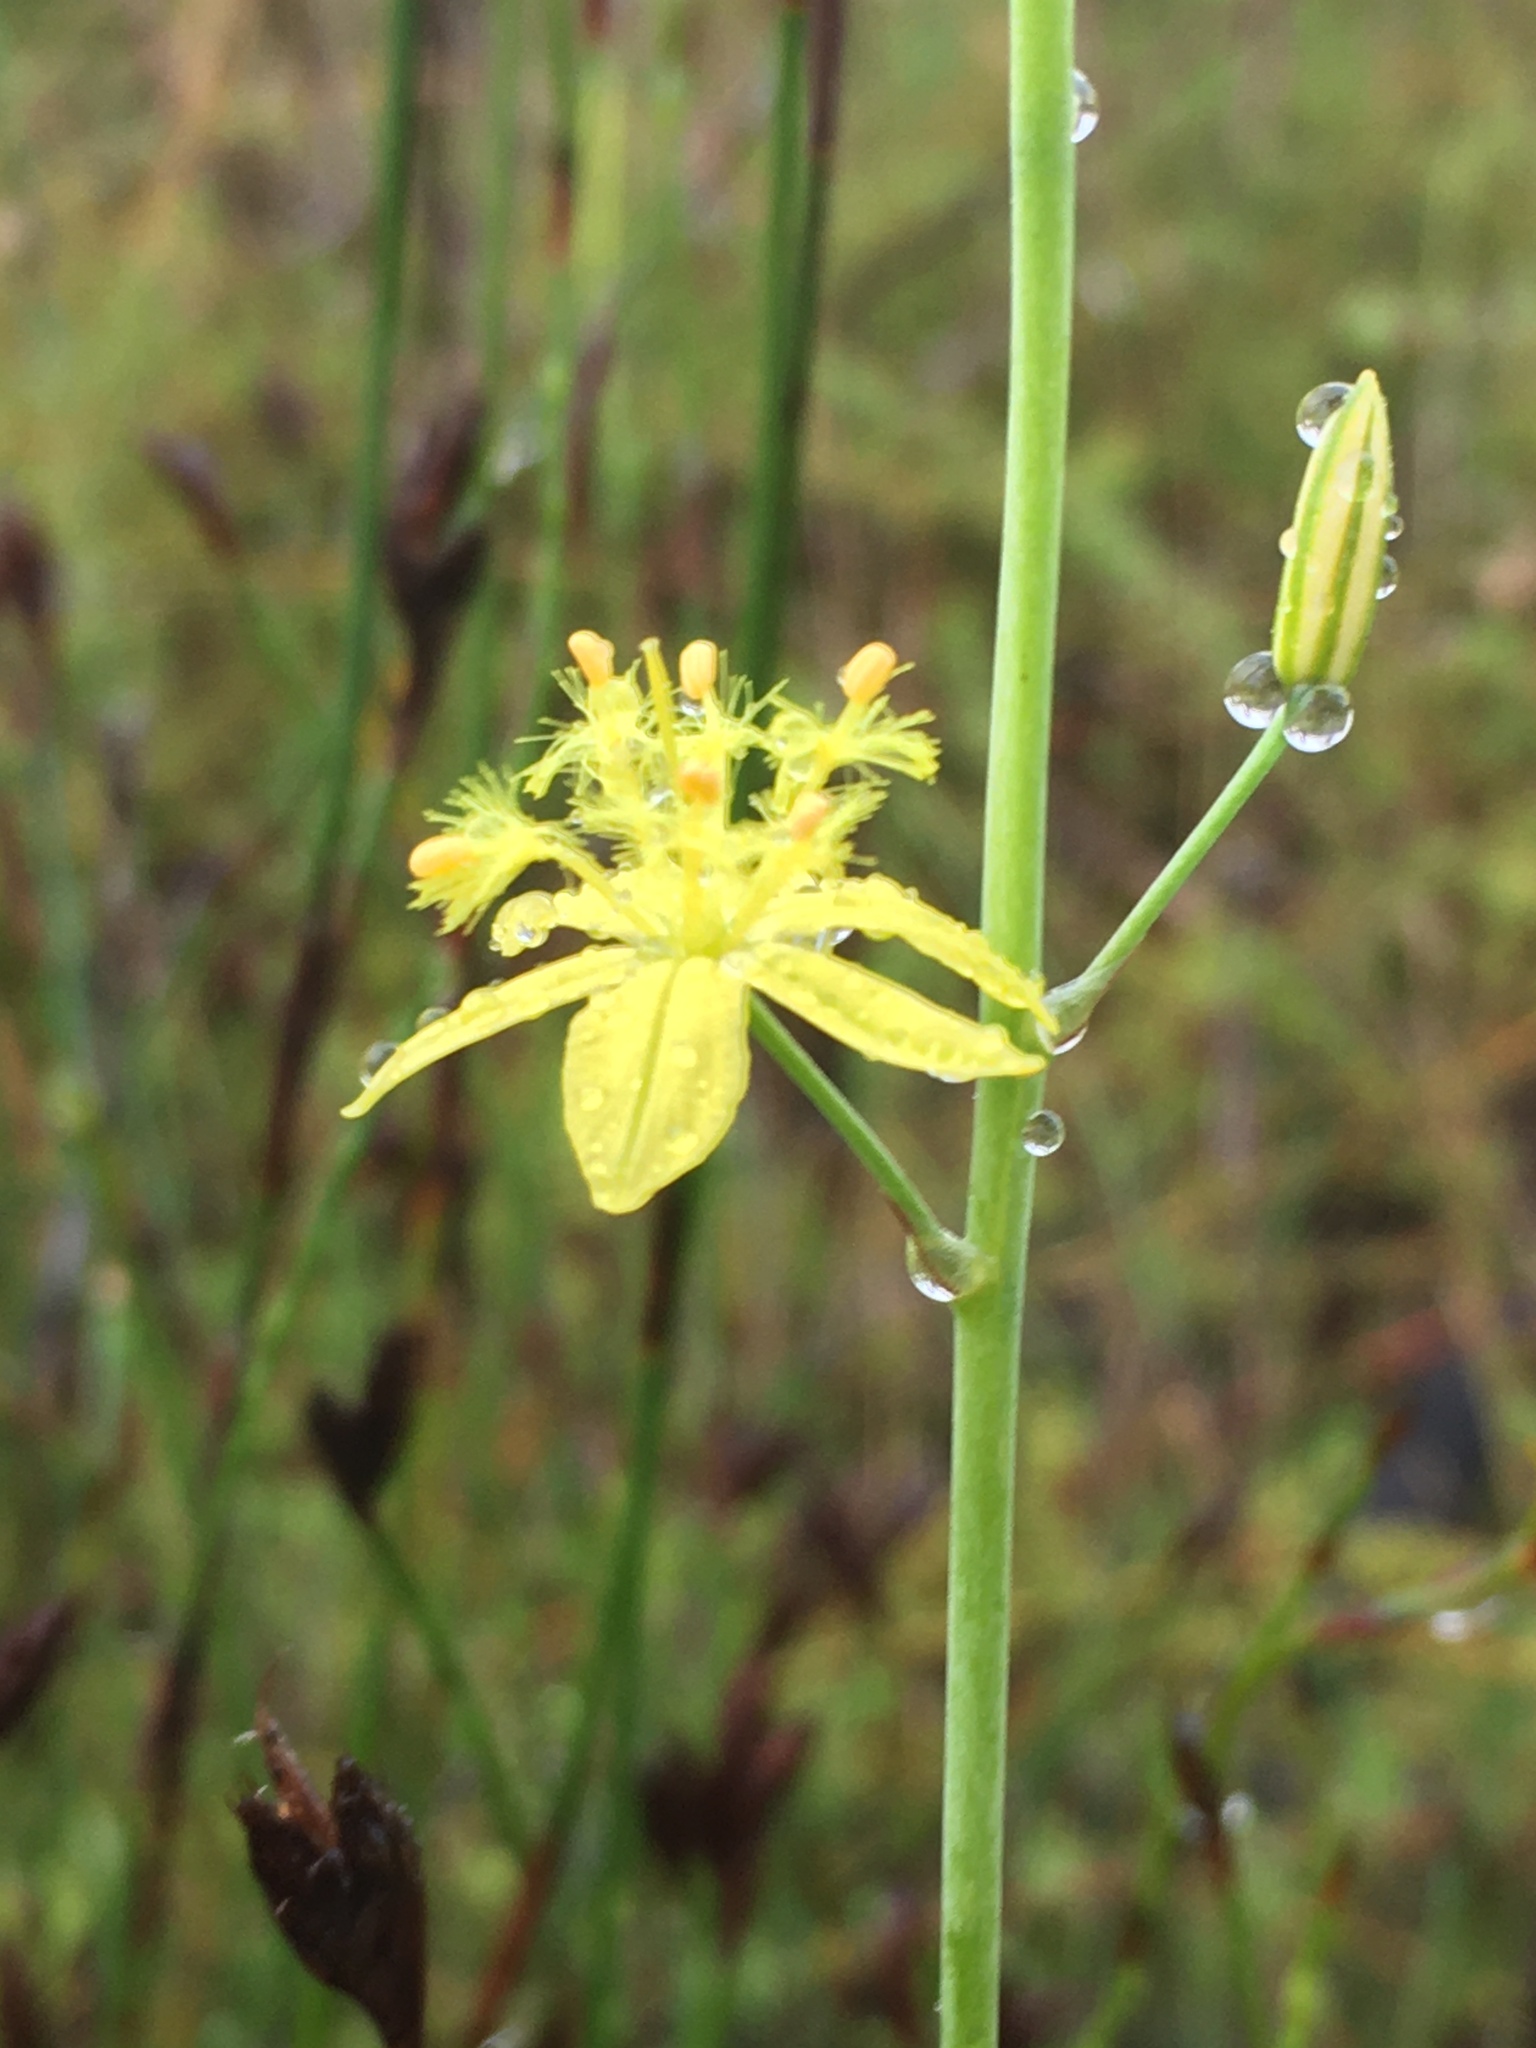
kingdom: Plantae
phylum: Tracheophyta
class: Liliopsida
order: Asparagales
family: Asphodelaceae
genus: Bulbine
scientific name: Bulbine favosa
